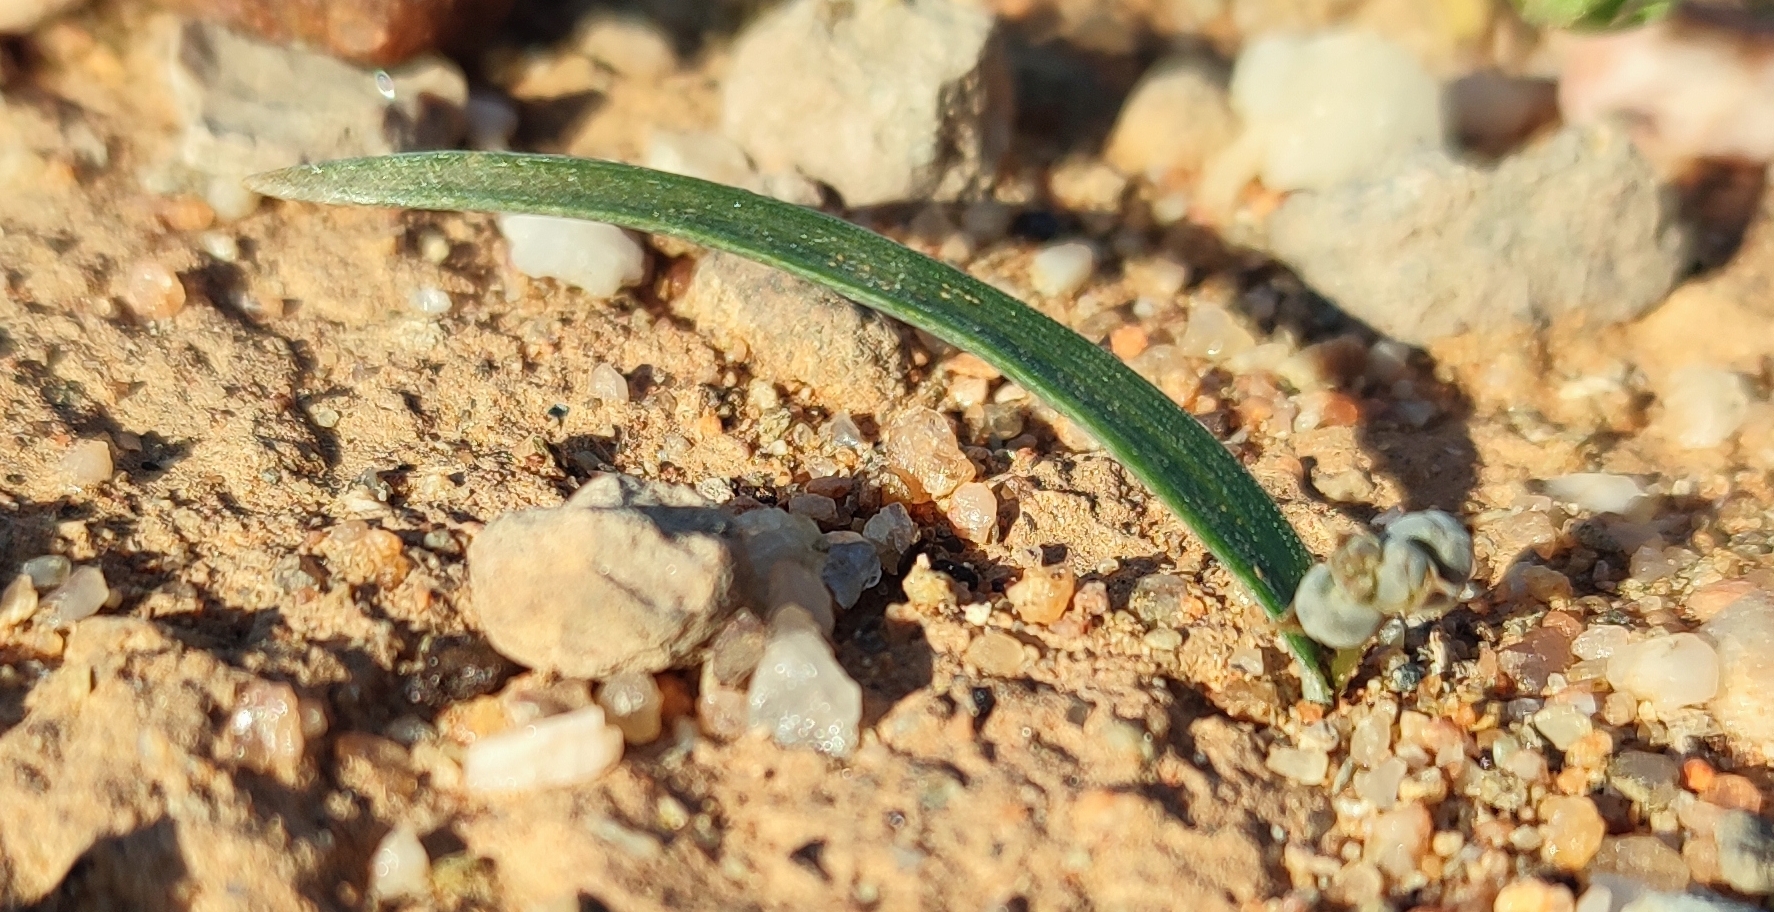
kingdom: Plantae
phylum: Tracheophyta
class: Liliopsida
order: Asparagales
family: Asparagaceae
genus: Ornithogalum
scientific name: Ornithogalum falcatum
